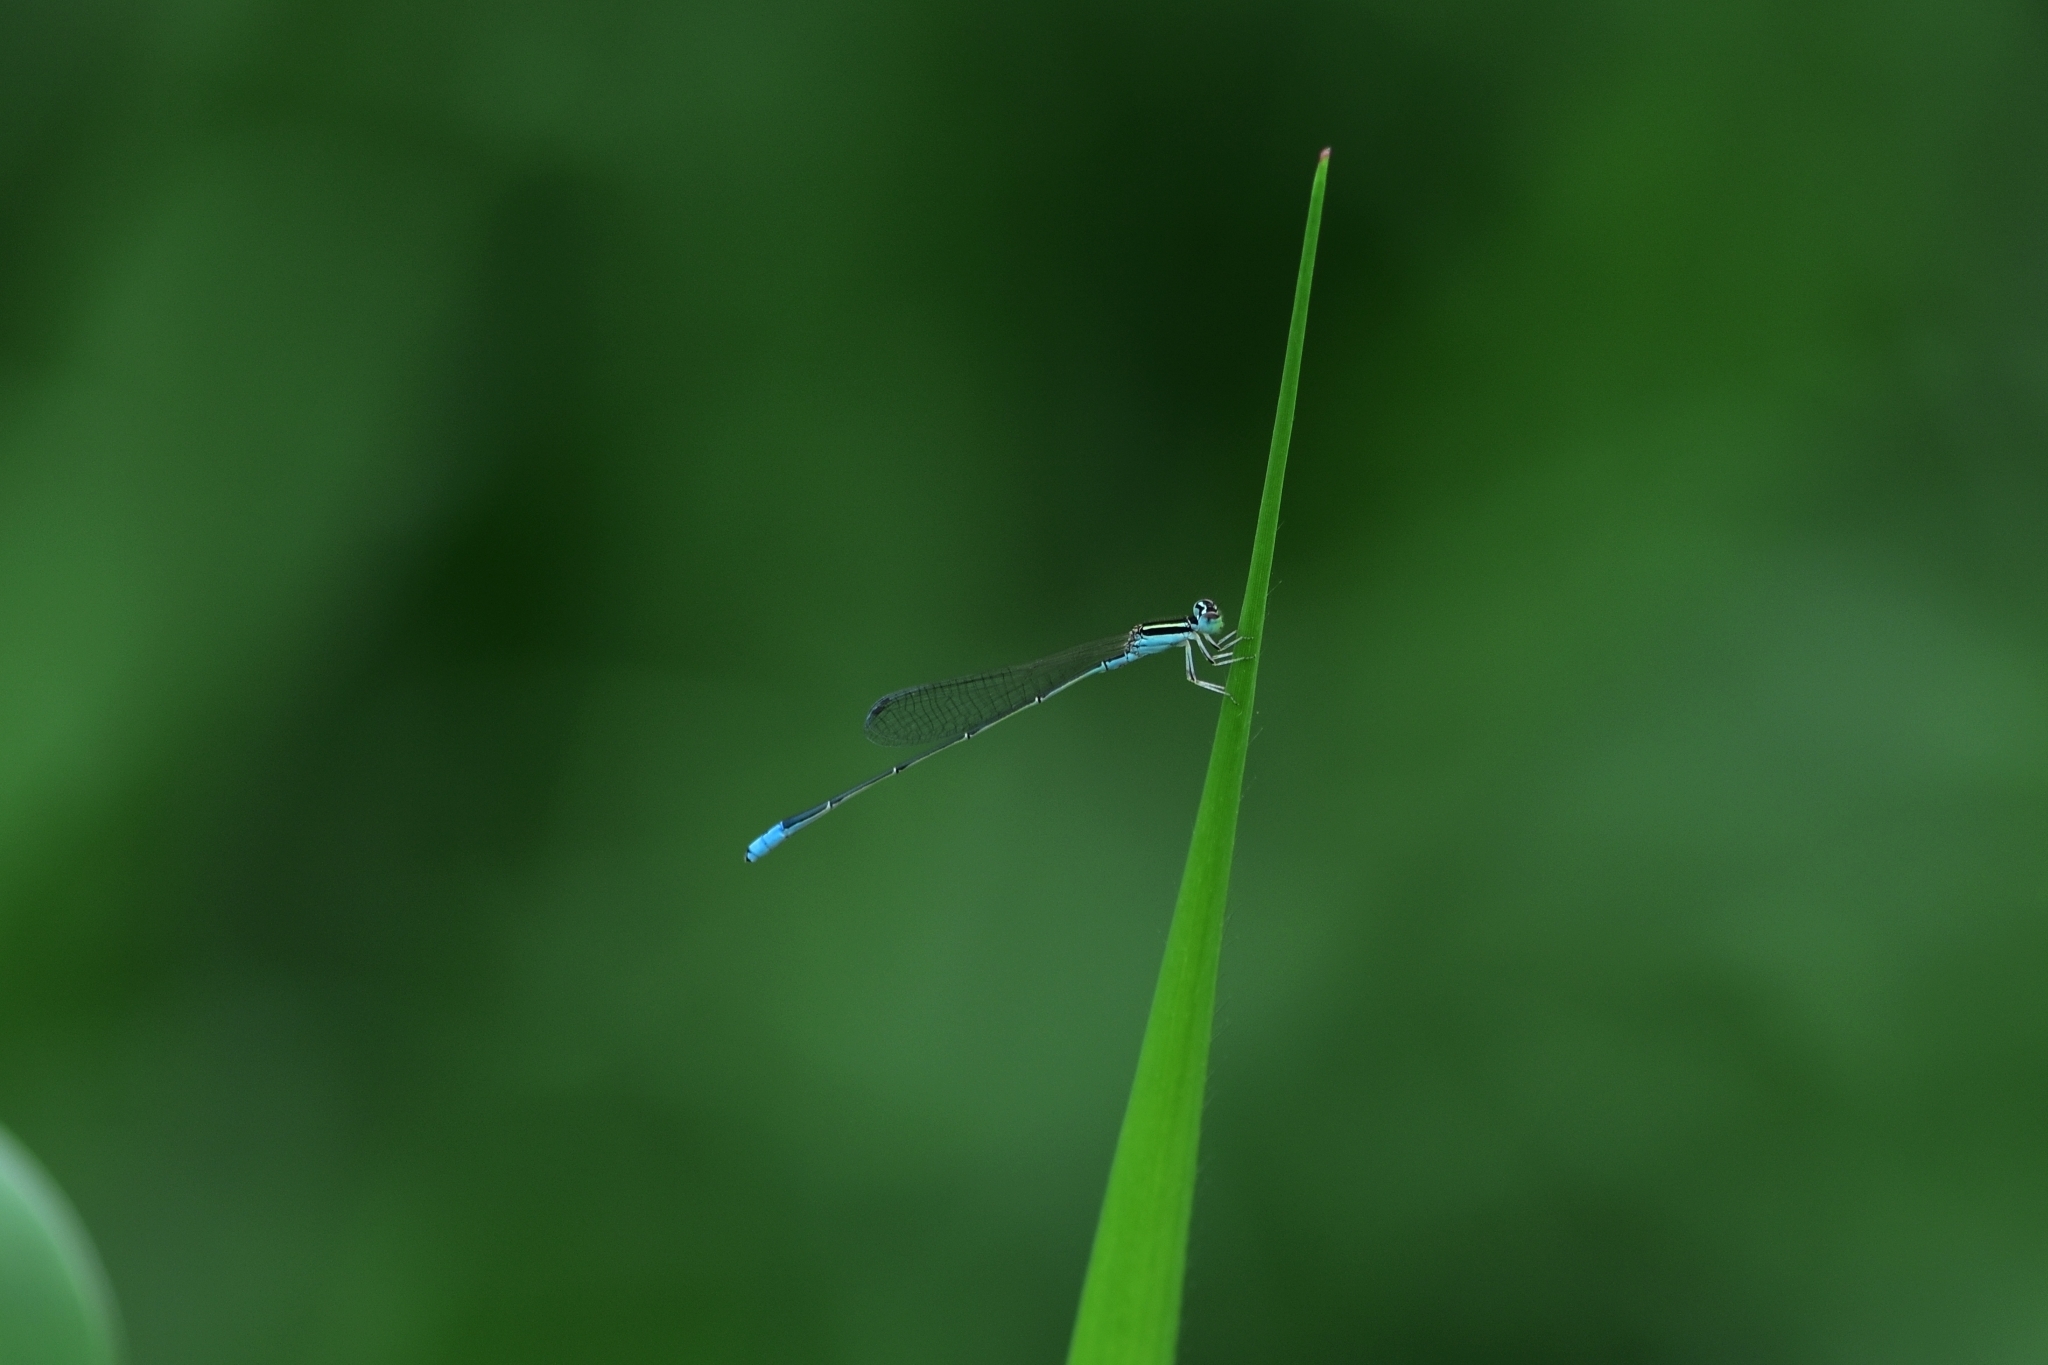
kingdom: Animalia
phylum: Arthropoda
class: Insecta
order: Odonata
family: Coenagrionidae
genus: Aciagrion
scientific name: Aciagrion occidentale
